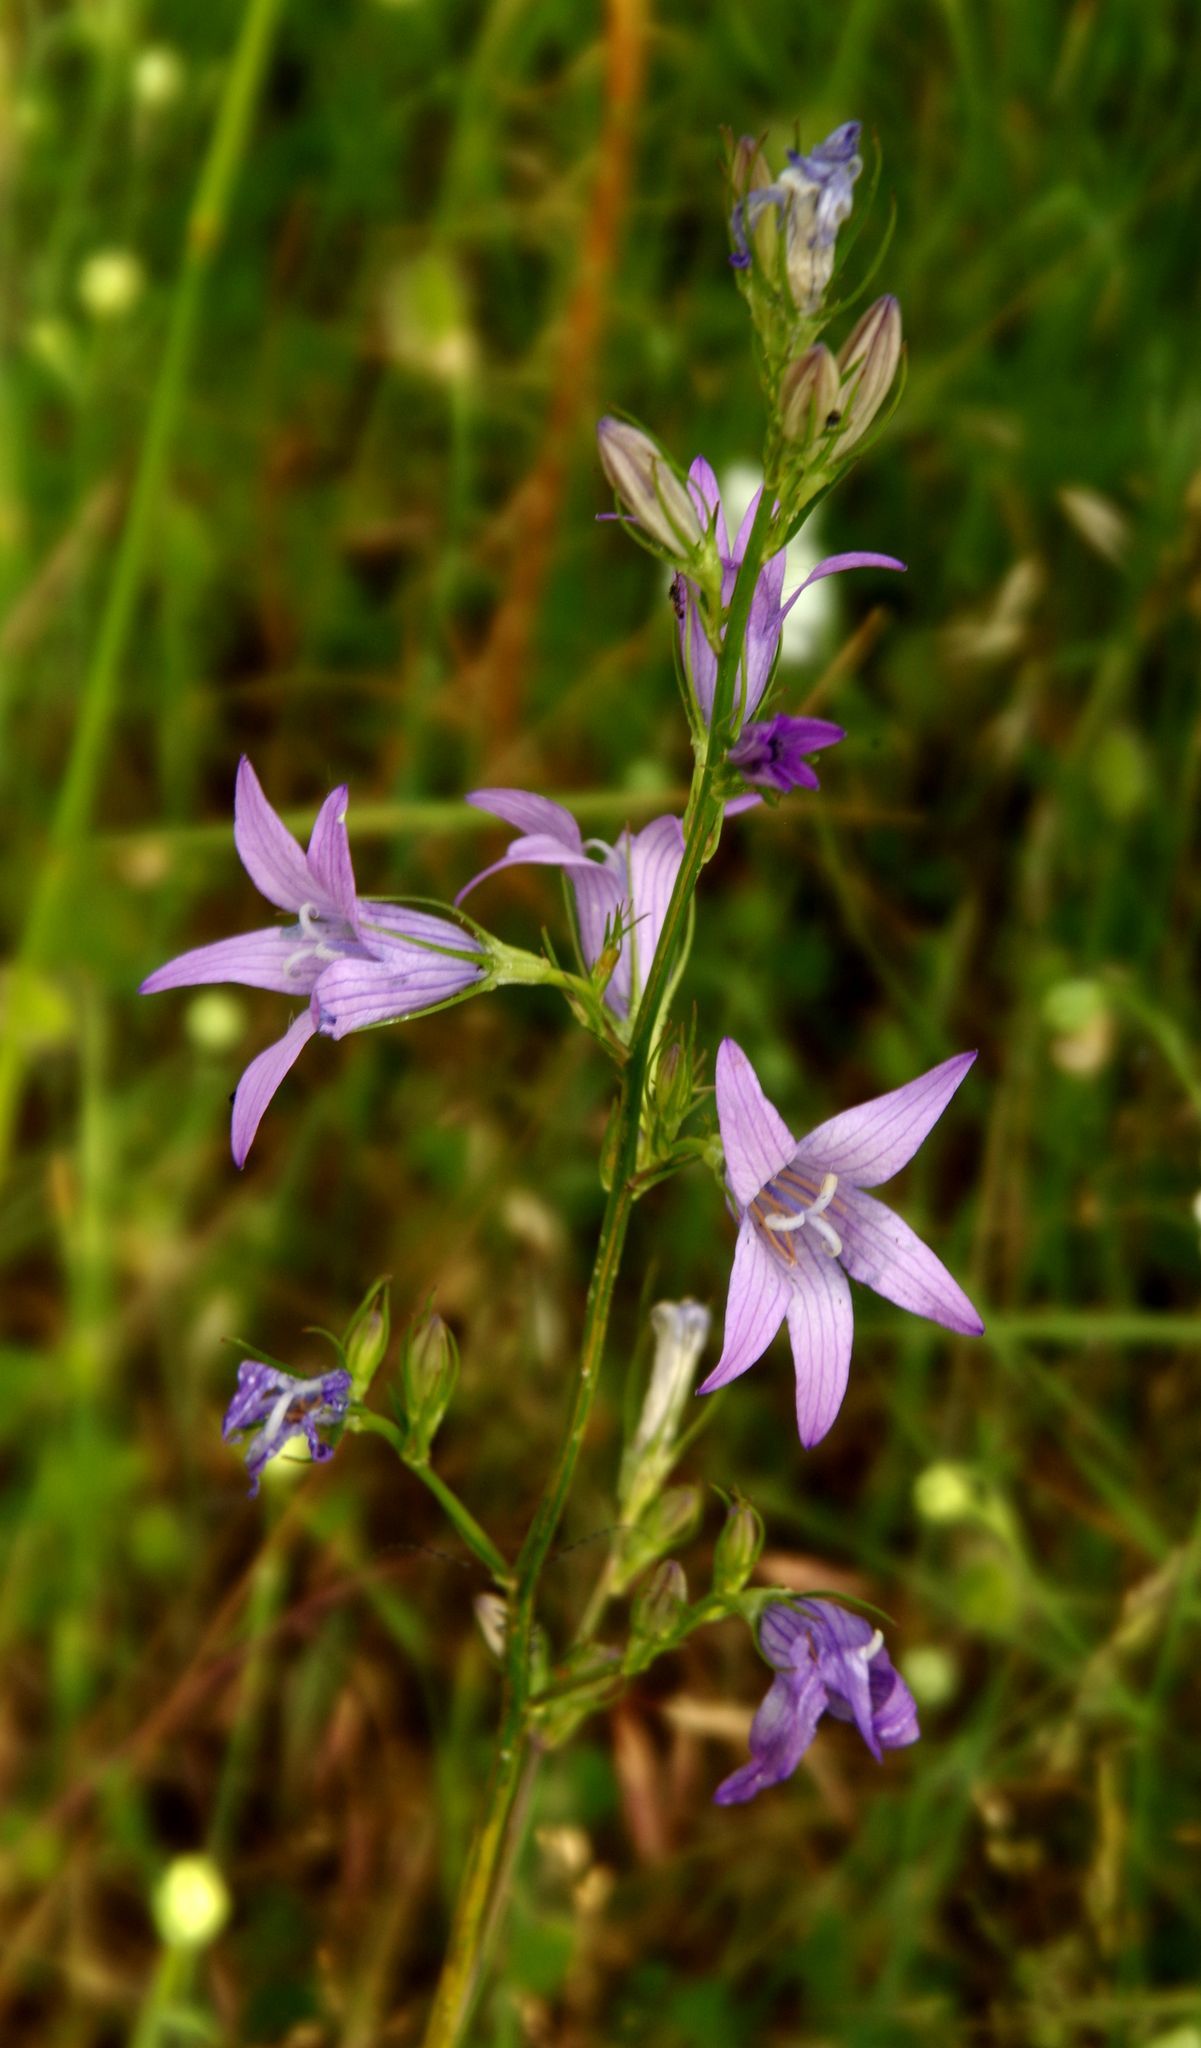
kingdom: Plantae
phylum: Tracheophyta
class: Magnoliopsida
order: Asterales
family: Campanulaceae
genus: Campanula
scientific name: Campanula rapunculus
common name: Rampion bellflower
